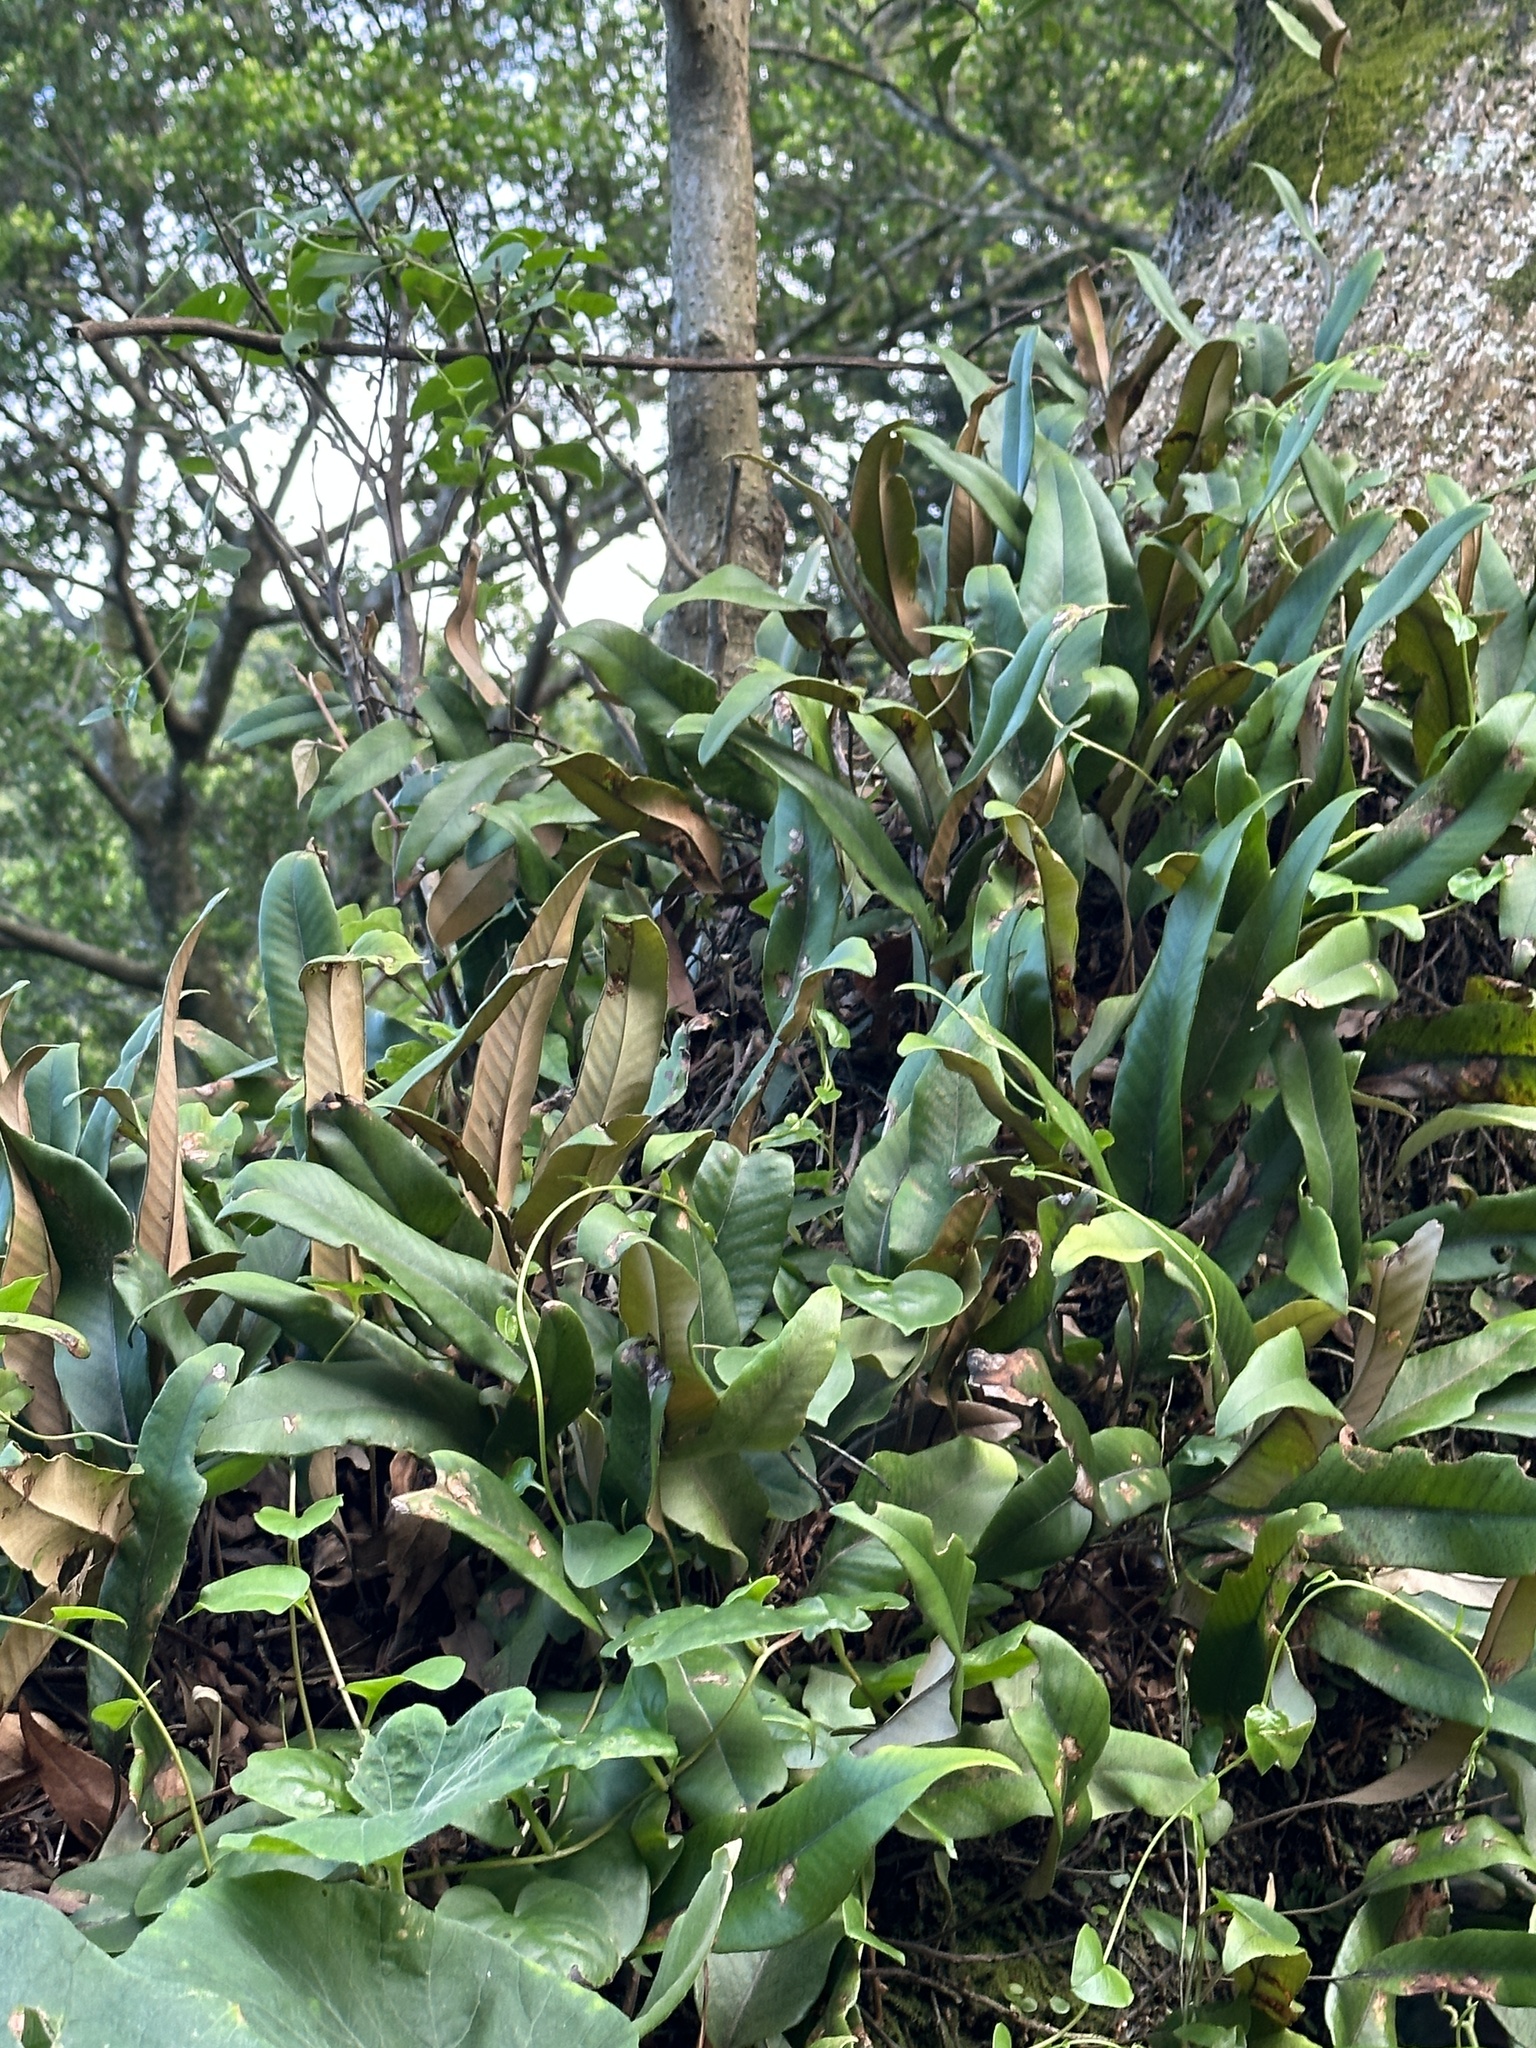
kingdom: Plantae
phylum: Tracheophyta
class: Polypodiopsida
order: Polypodiales
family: Polypodiaceae
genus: Pyrrosia
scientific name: Pyrrosia lingua
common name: Felt fern
